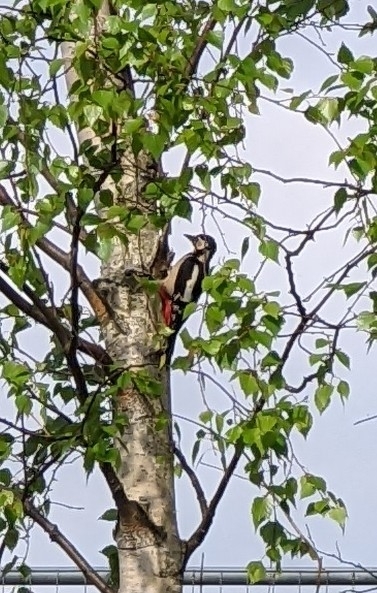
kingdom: Animalia
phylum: Chordata
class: Aves
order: Piciformes
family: Picidae
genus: Dendrocopos
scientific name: Dendrocopos major
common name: Great spotted woodpecker
